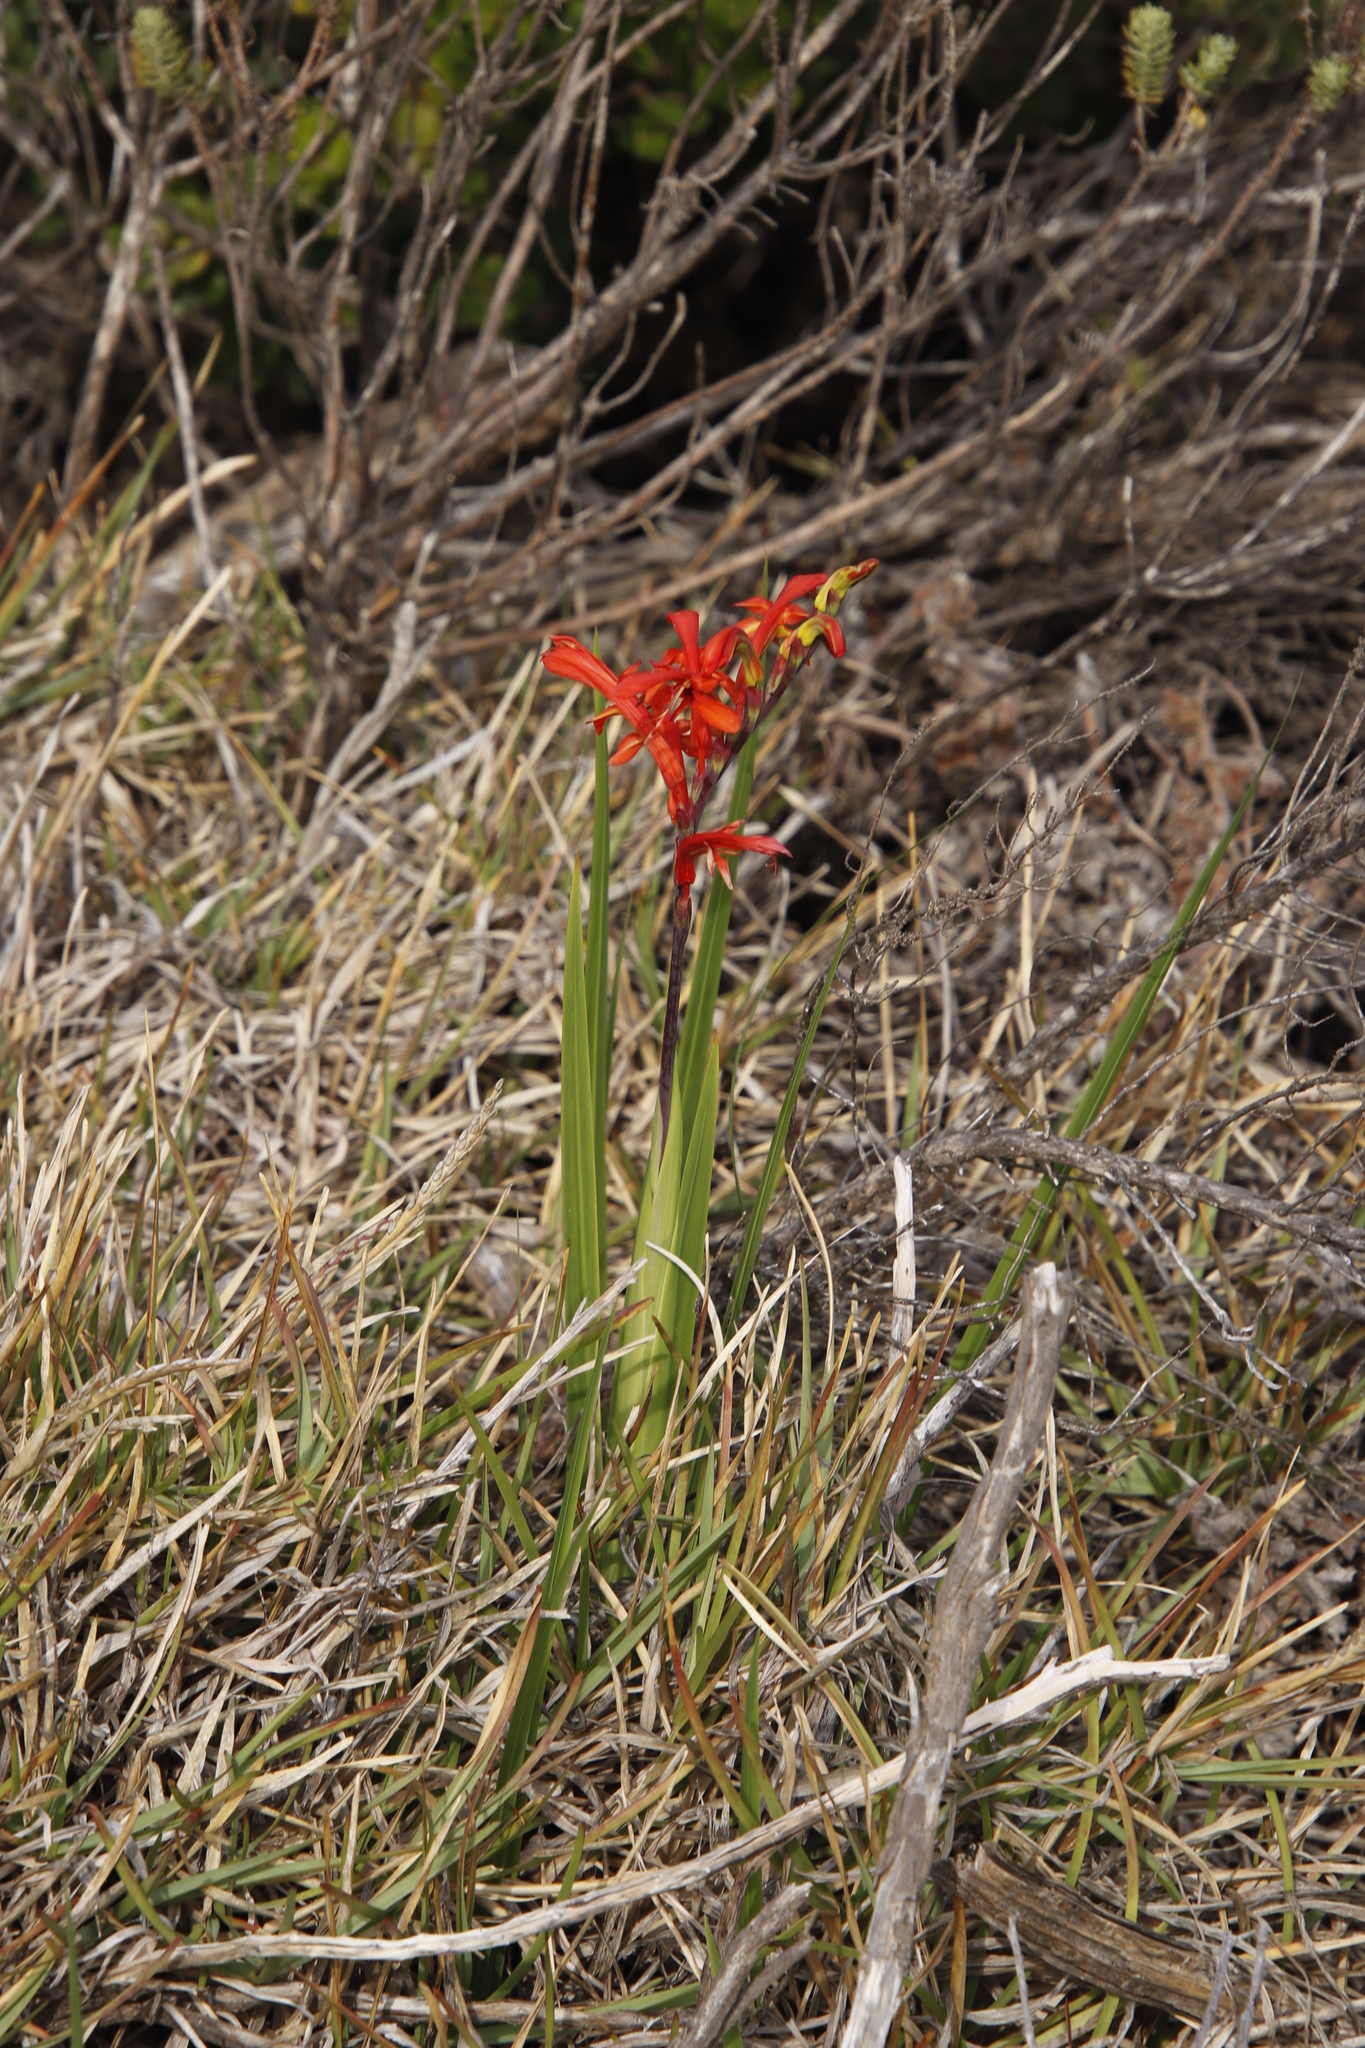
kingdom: Plantae
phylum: Tracheophyta
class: Liliopsida
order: Asparagales
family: Iridaceae
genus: Chasmanthe
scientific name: Chasmanthe aethiopica
